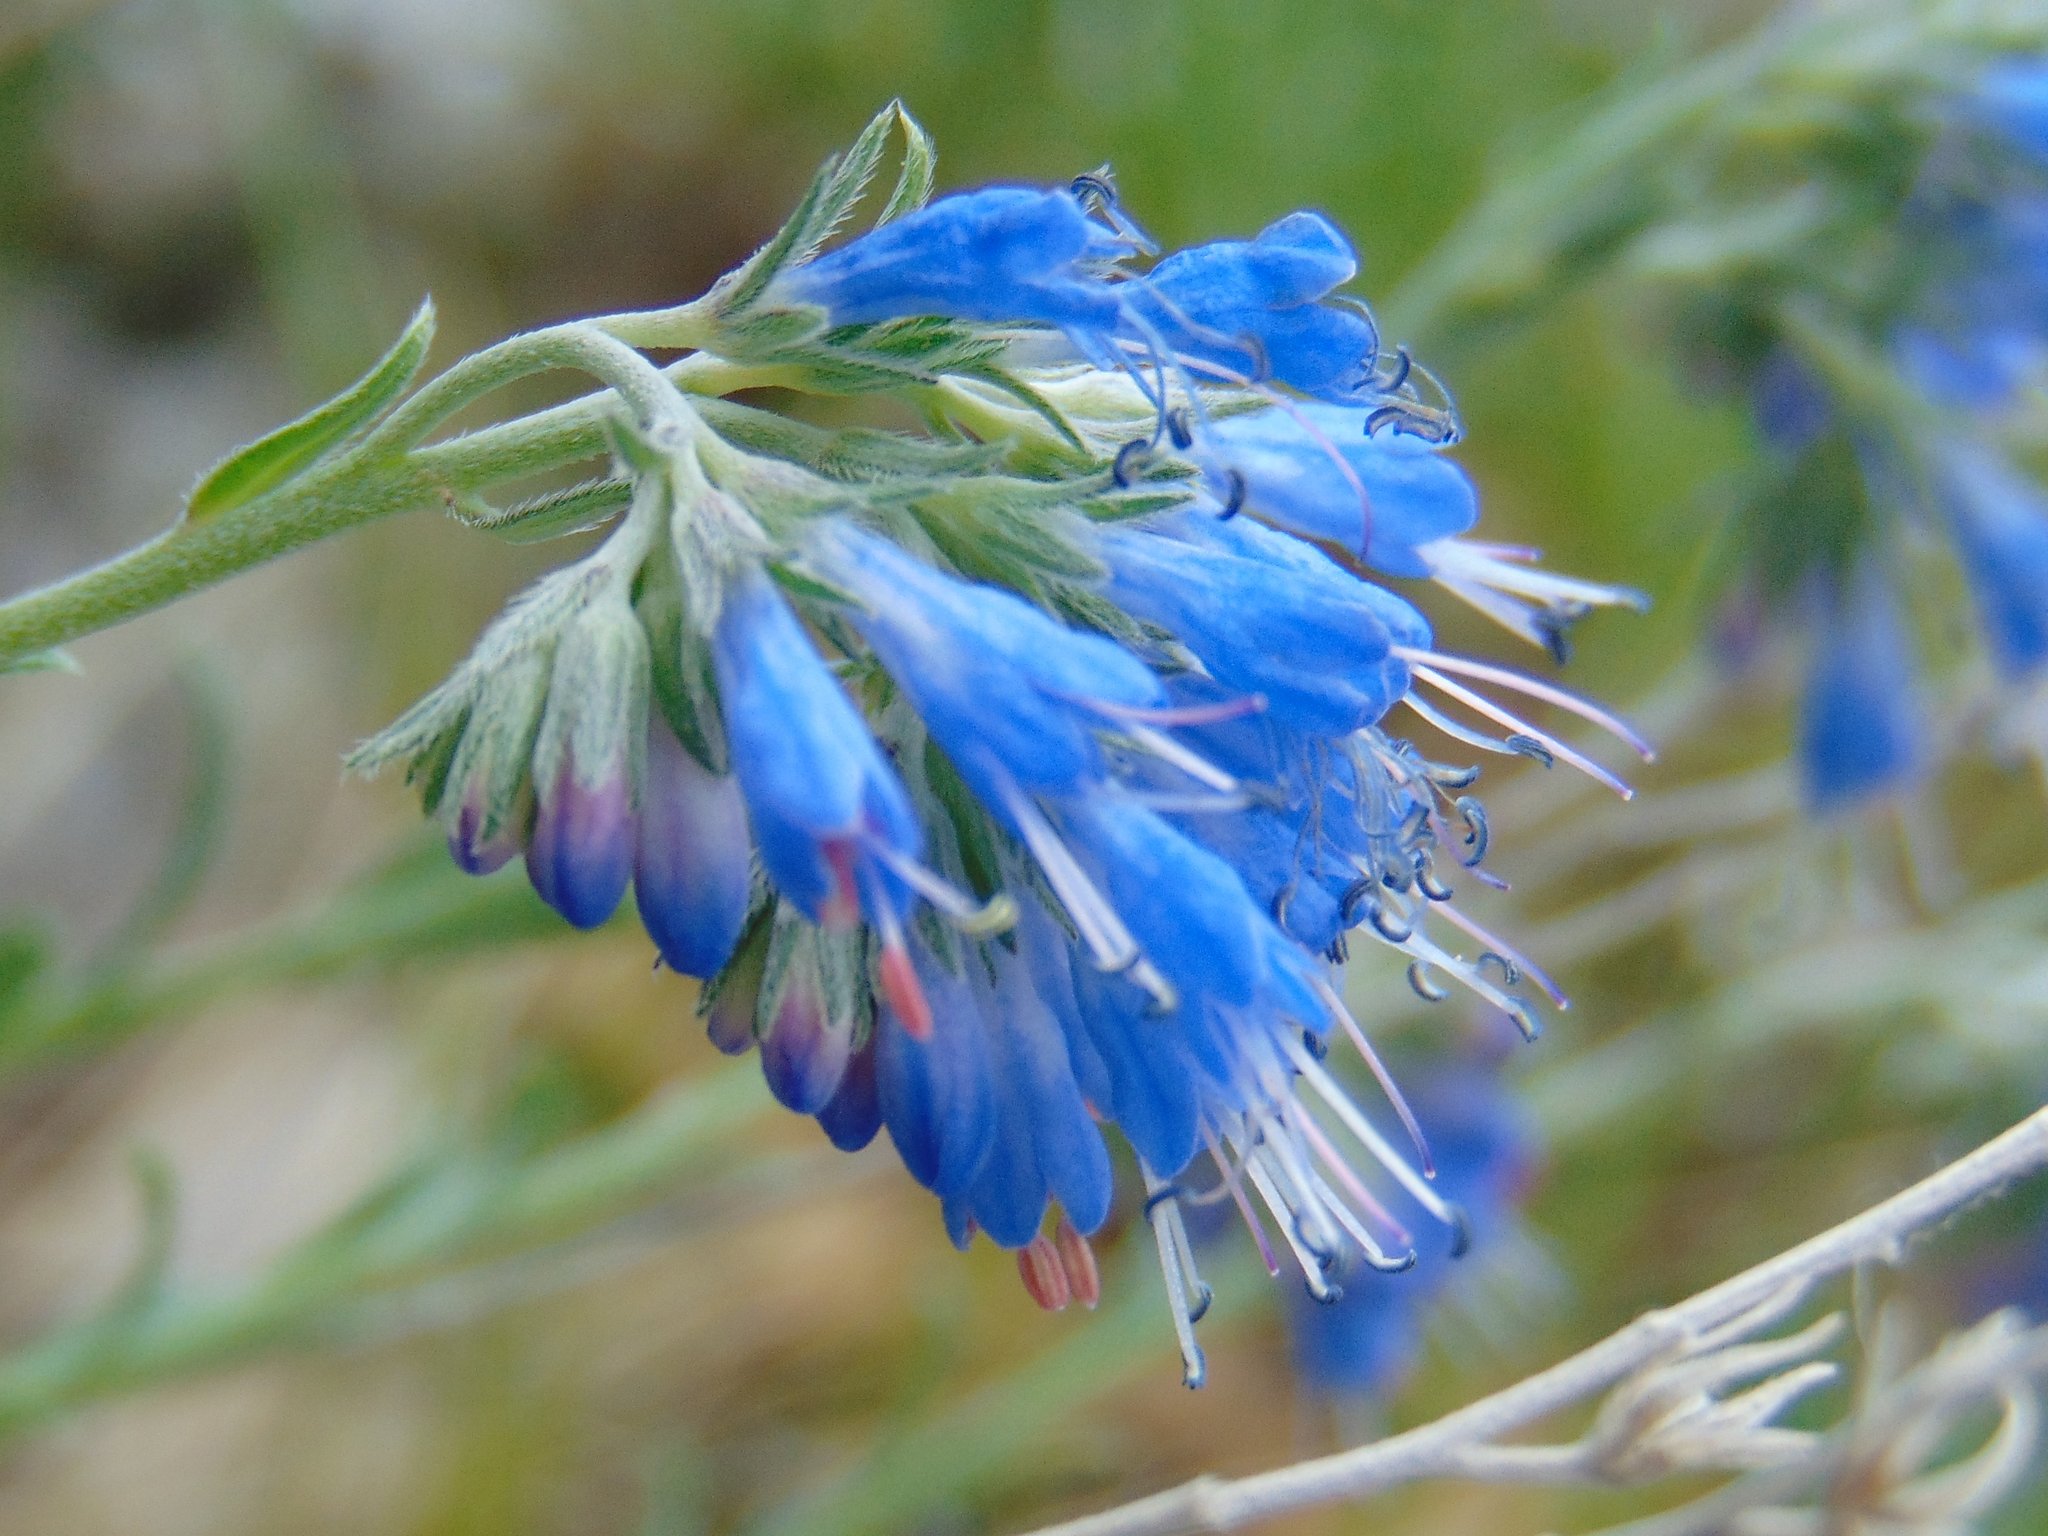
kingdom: Plantae
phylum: Tracheophyta
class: Magnoliopsida
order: Boraginales
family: Boraginaceae
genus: Moltkia
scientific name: Moltkia petraea
